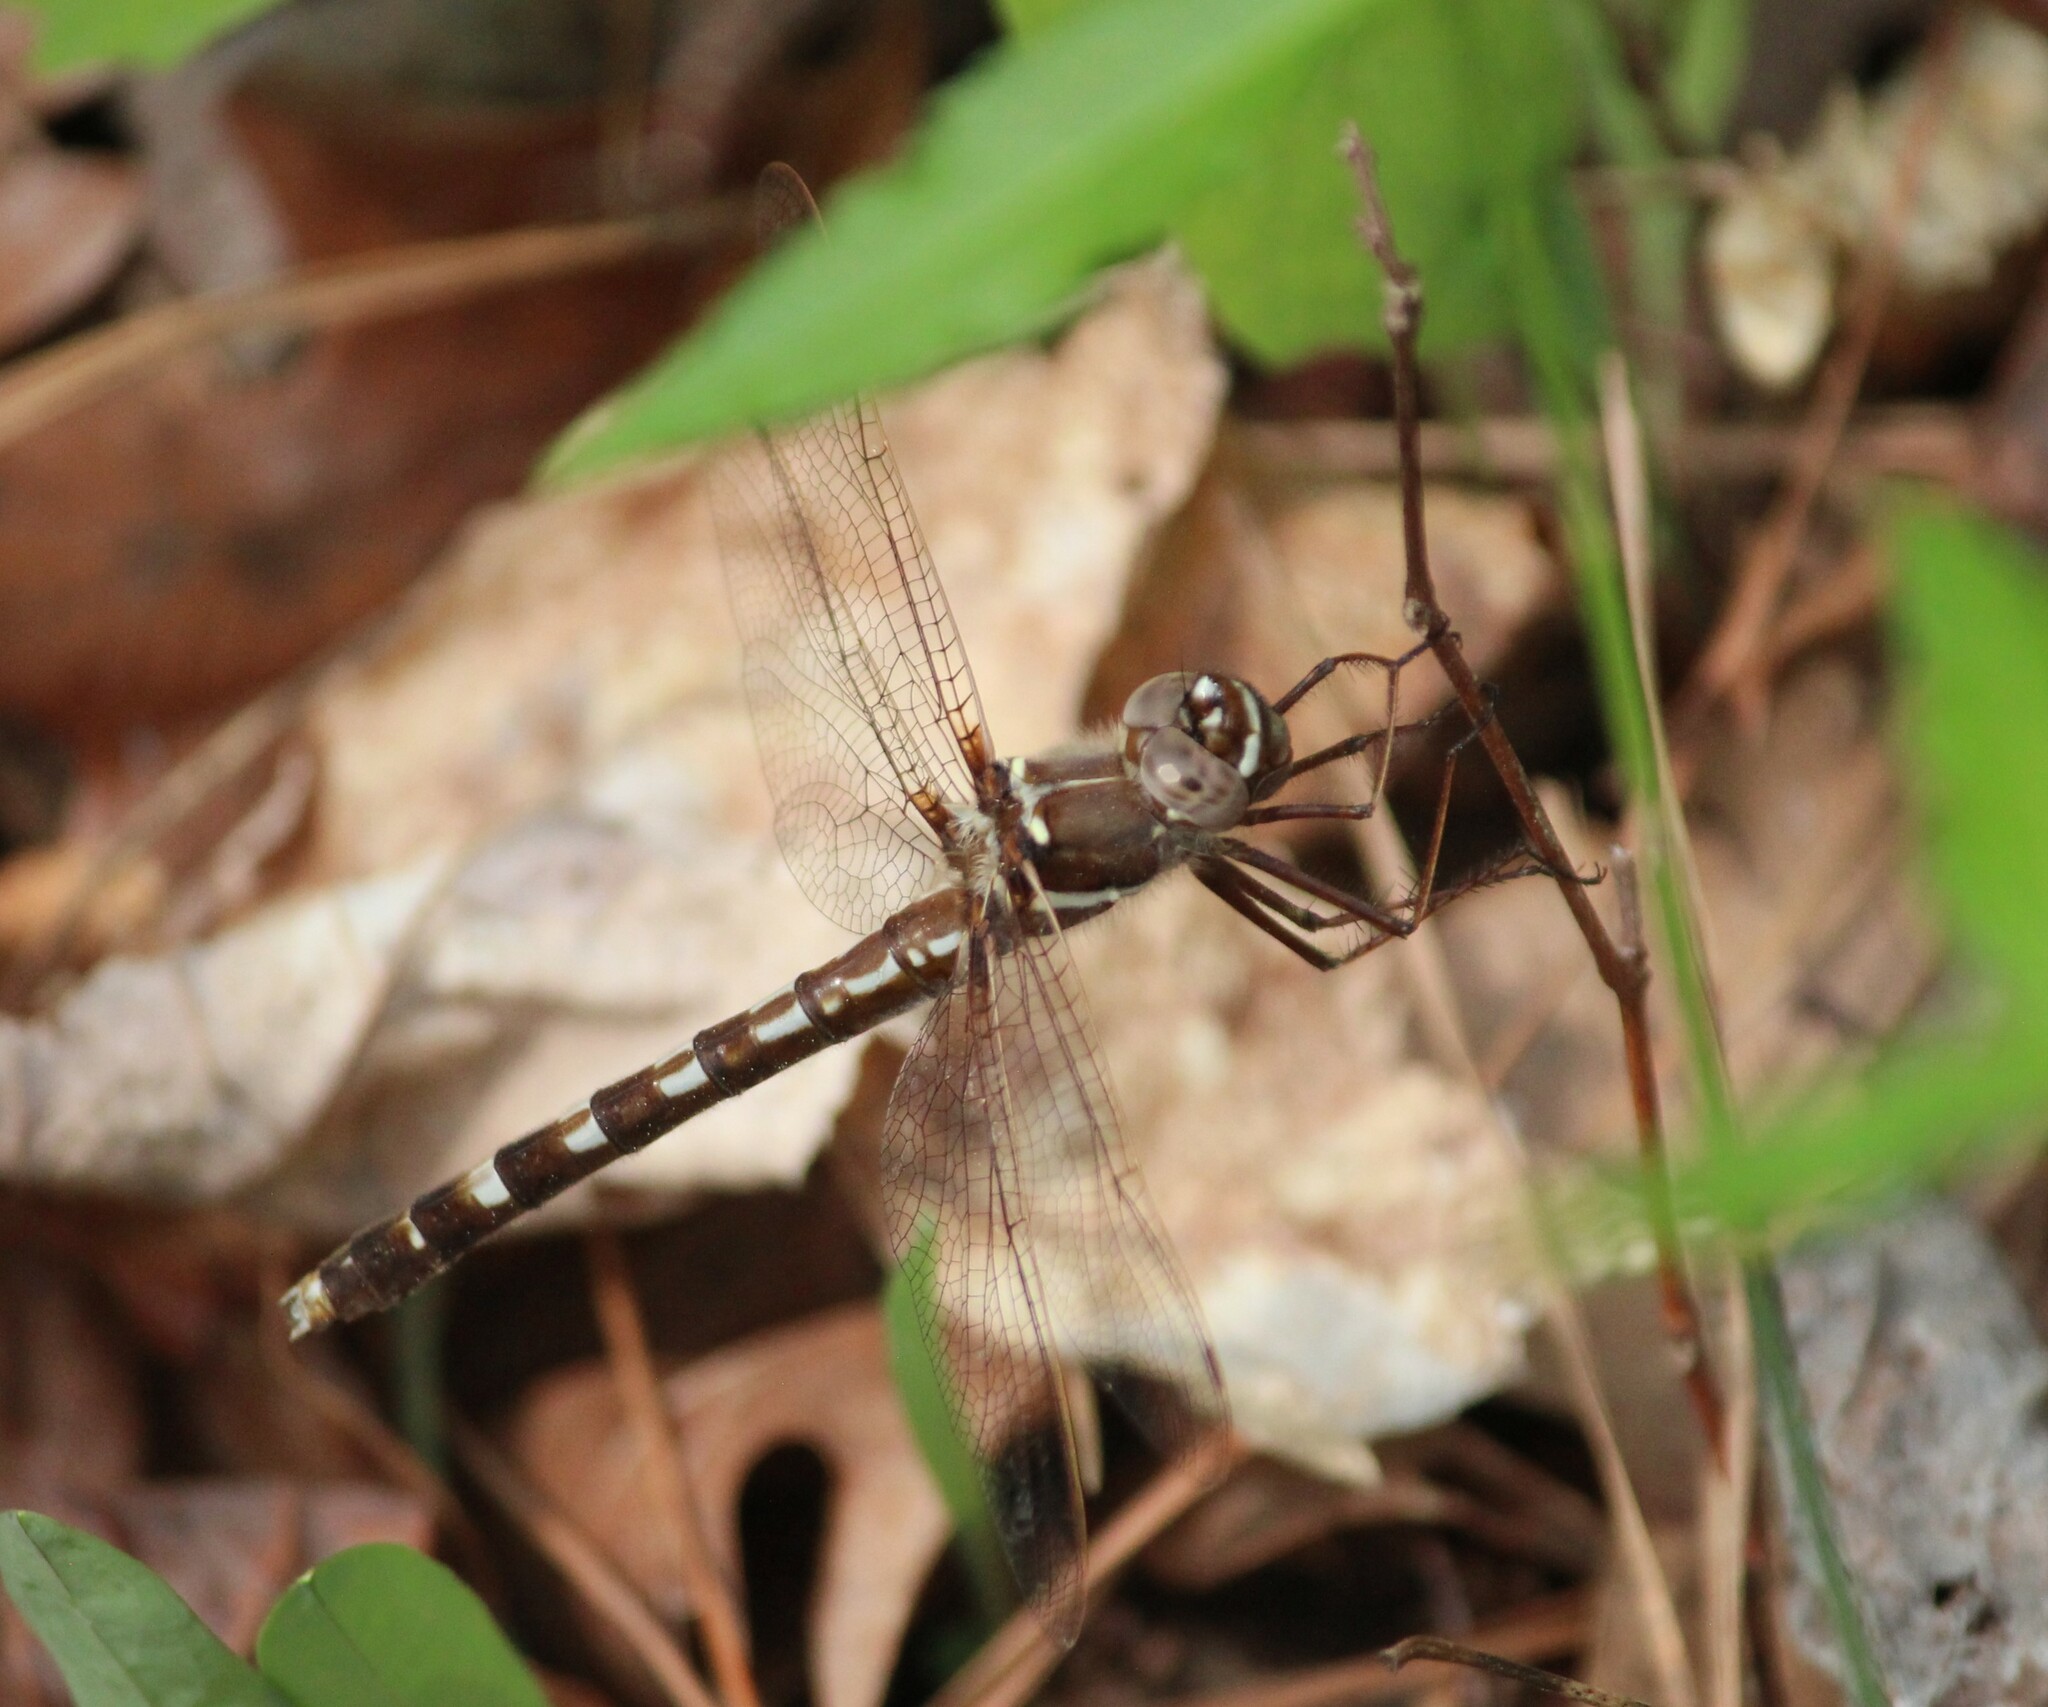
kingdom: Animalia
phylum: Arthropoda
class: Insecta
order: Odonata
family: Macromiidae
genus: Didymops
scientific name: Didymops transversa
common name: Stream cruiser
